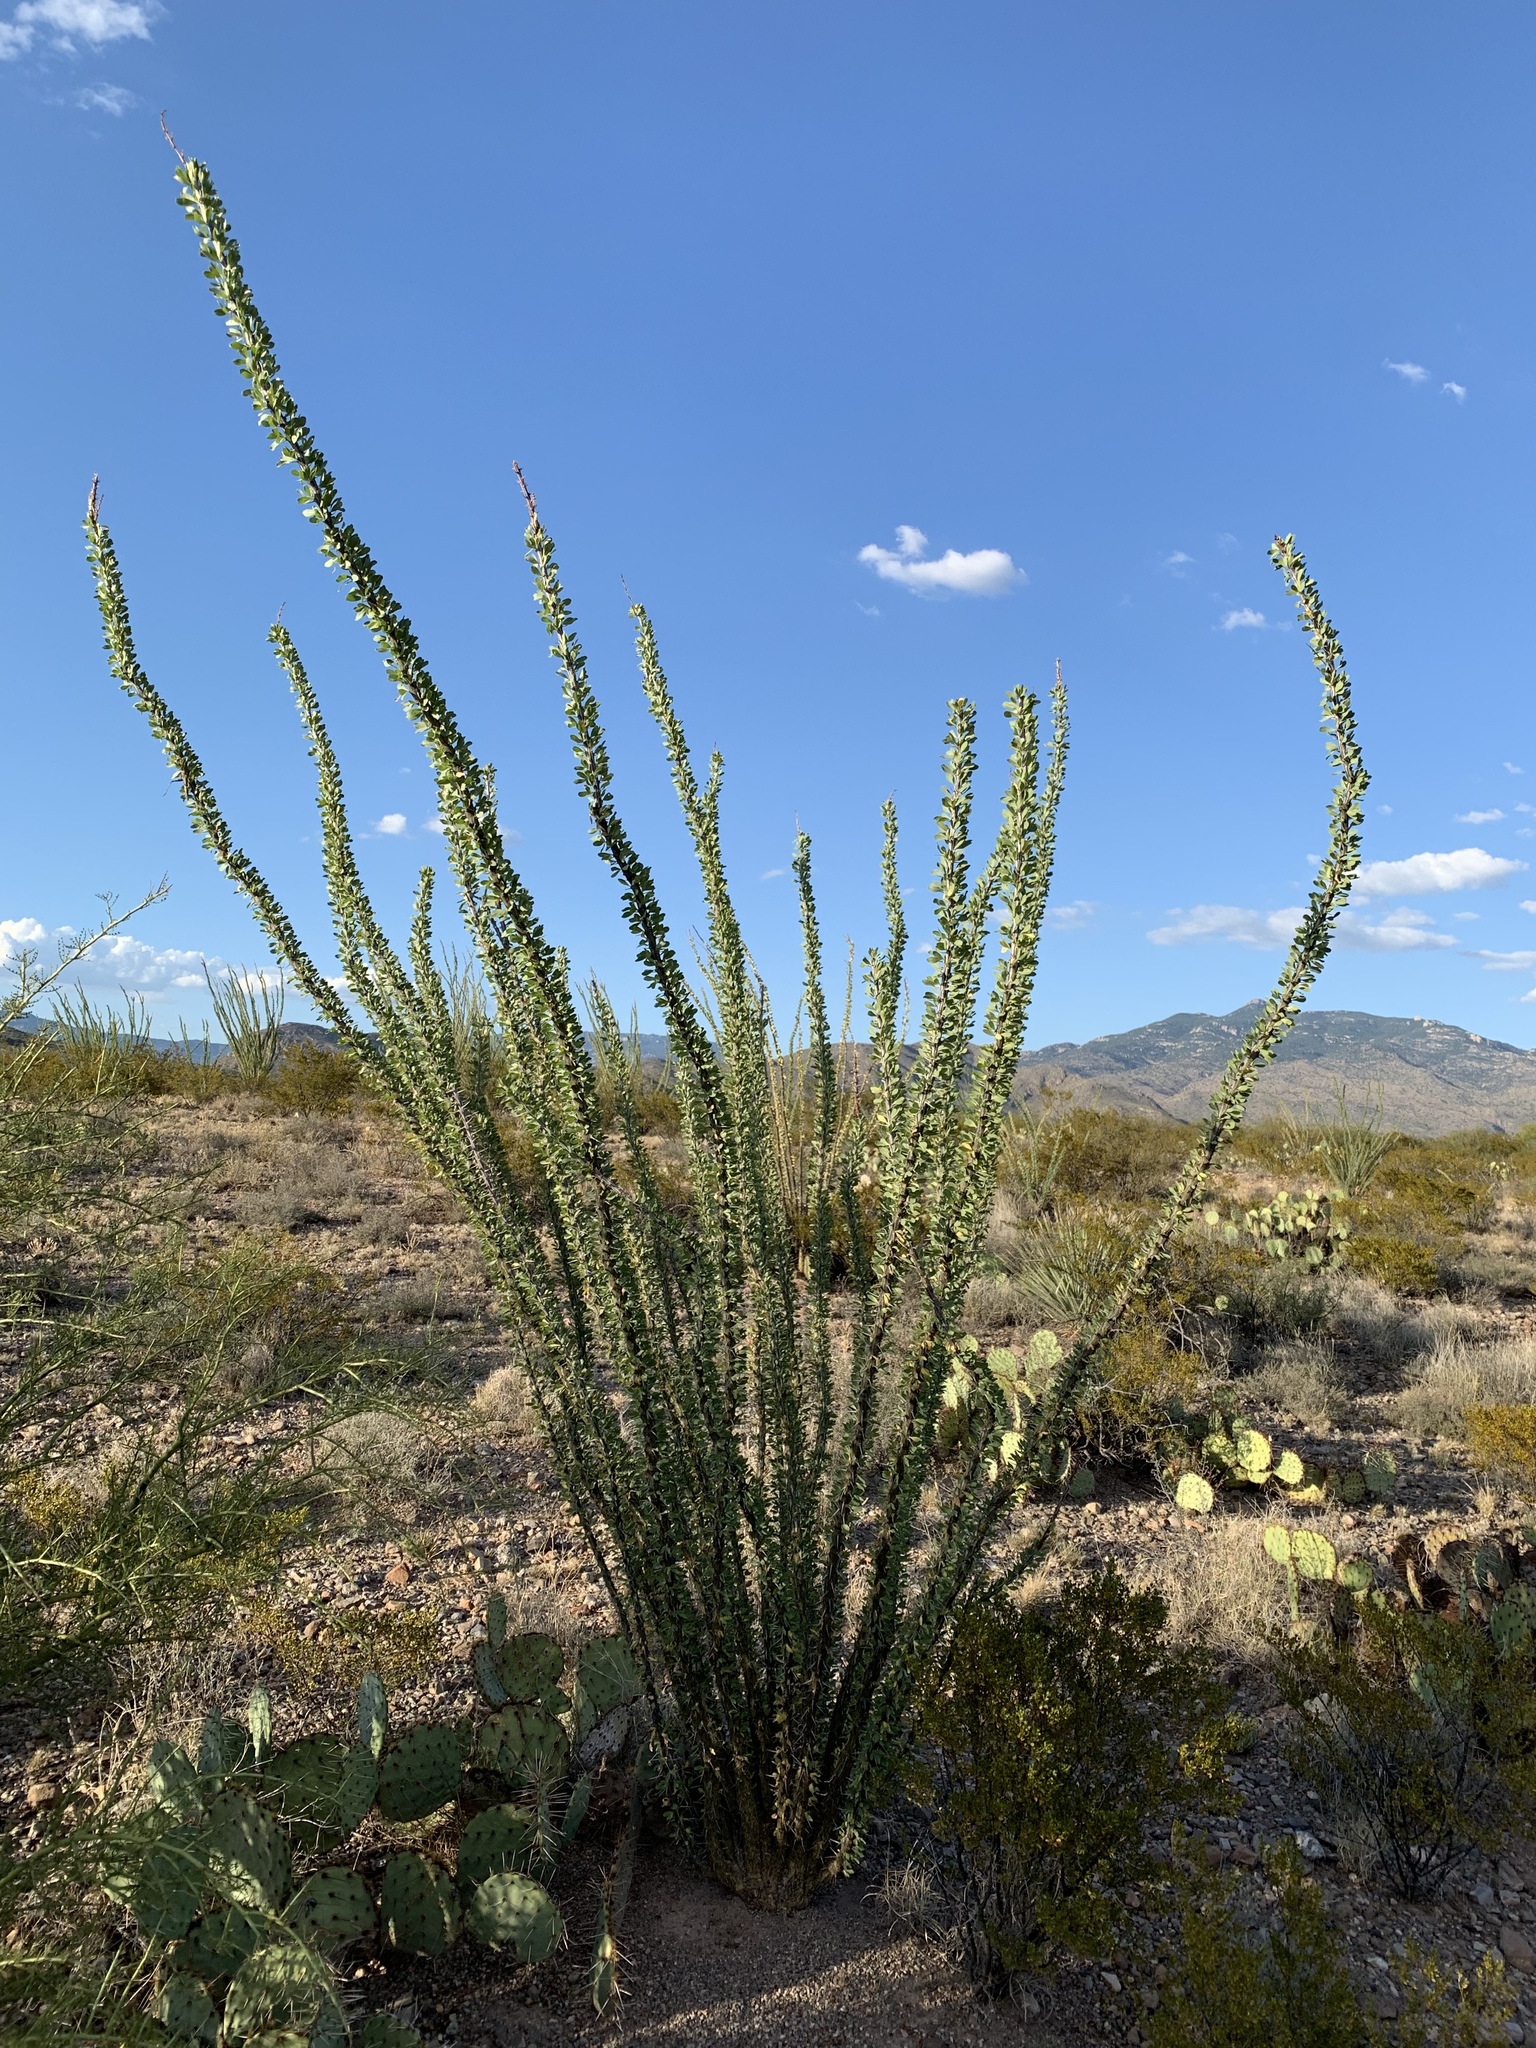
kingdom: Plantae
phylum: Tracheophyta
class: Magnoliopsida
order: Ericales
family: Fouquieriaceae
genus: Fouquieria
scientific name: Fouquieria splendens
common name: Vine-cactus
